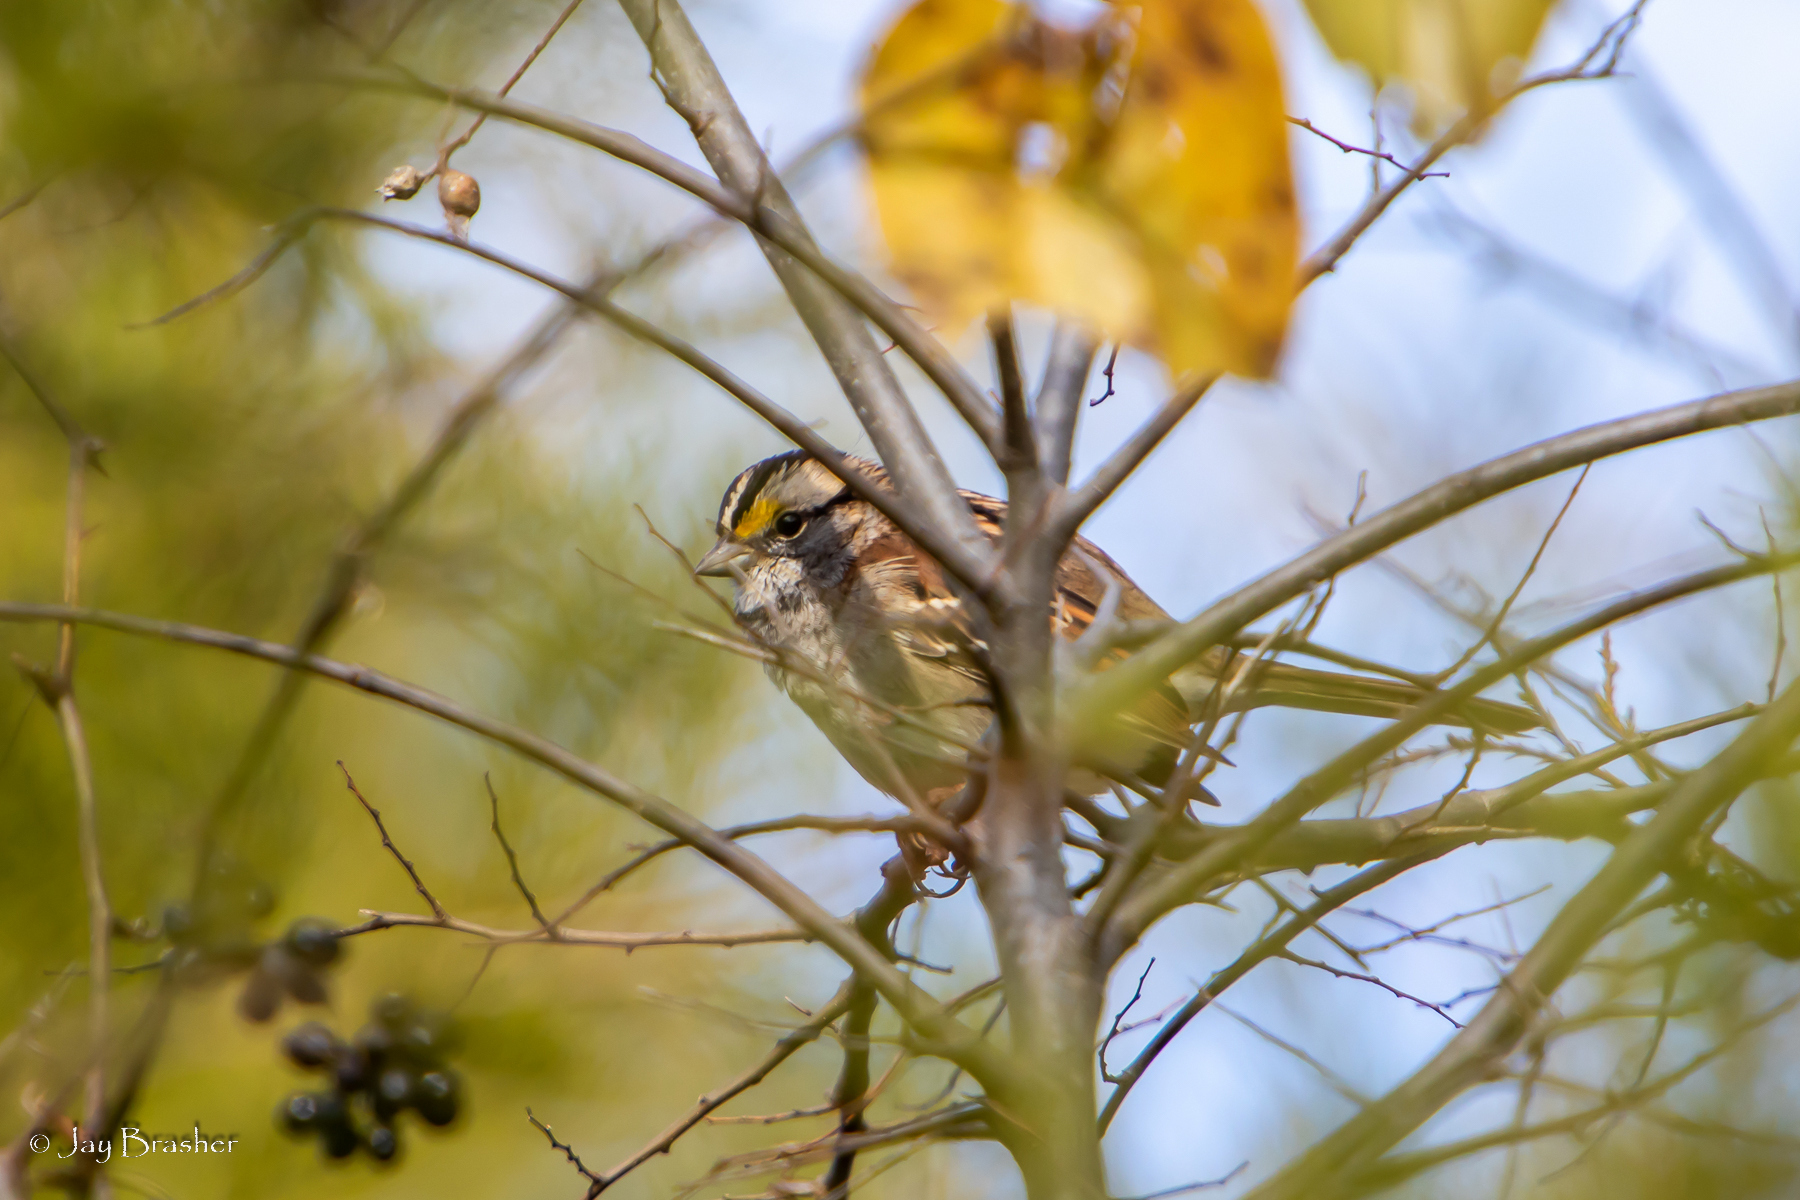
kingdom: Animalia
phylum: Chordata
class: Aves
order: Passeriformes
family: Passerellidae
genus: Zonotrichia
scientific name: Zonotrichia albicollis
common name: White-throated sparrow
